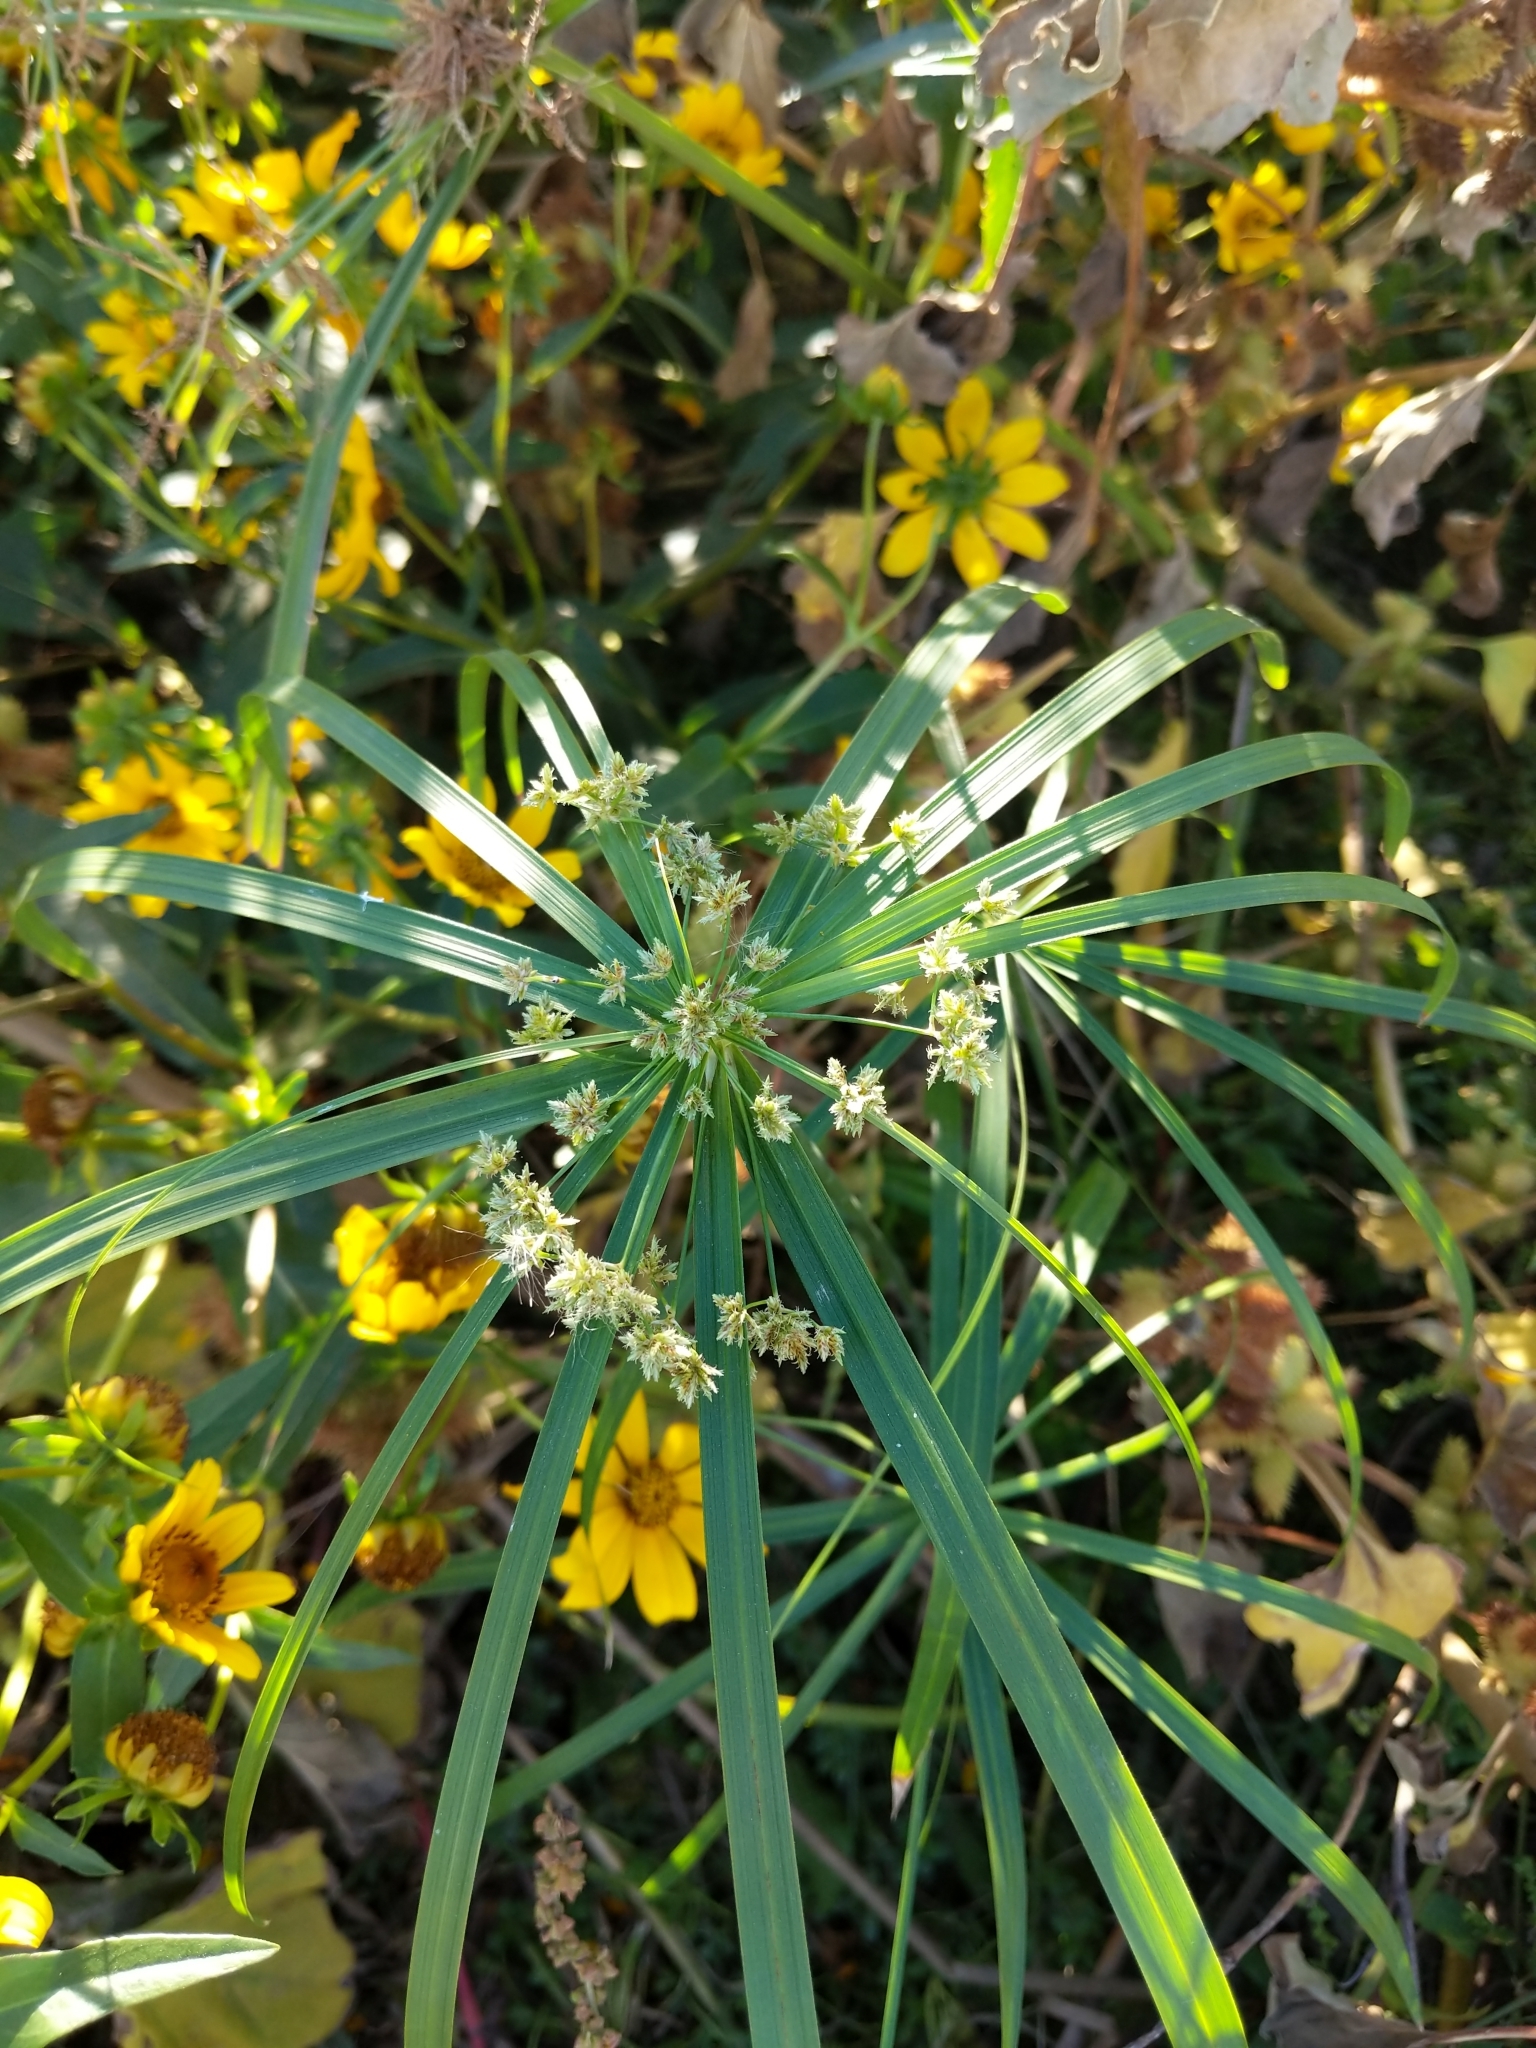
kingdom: Plantae
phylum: Tracheophyta
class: Liliopsida
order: Poales
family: Cyperaceae
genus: Cyperus
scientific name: Cyperus alternifolius
